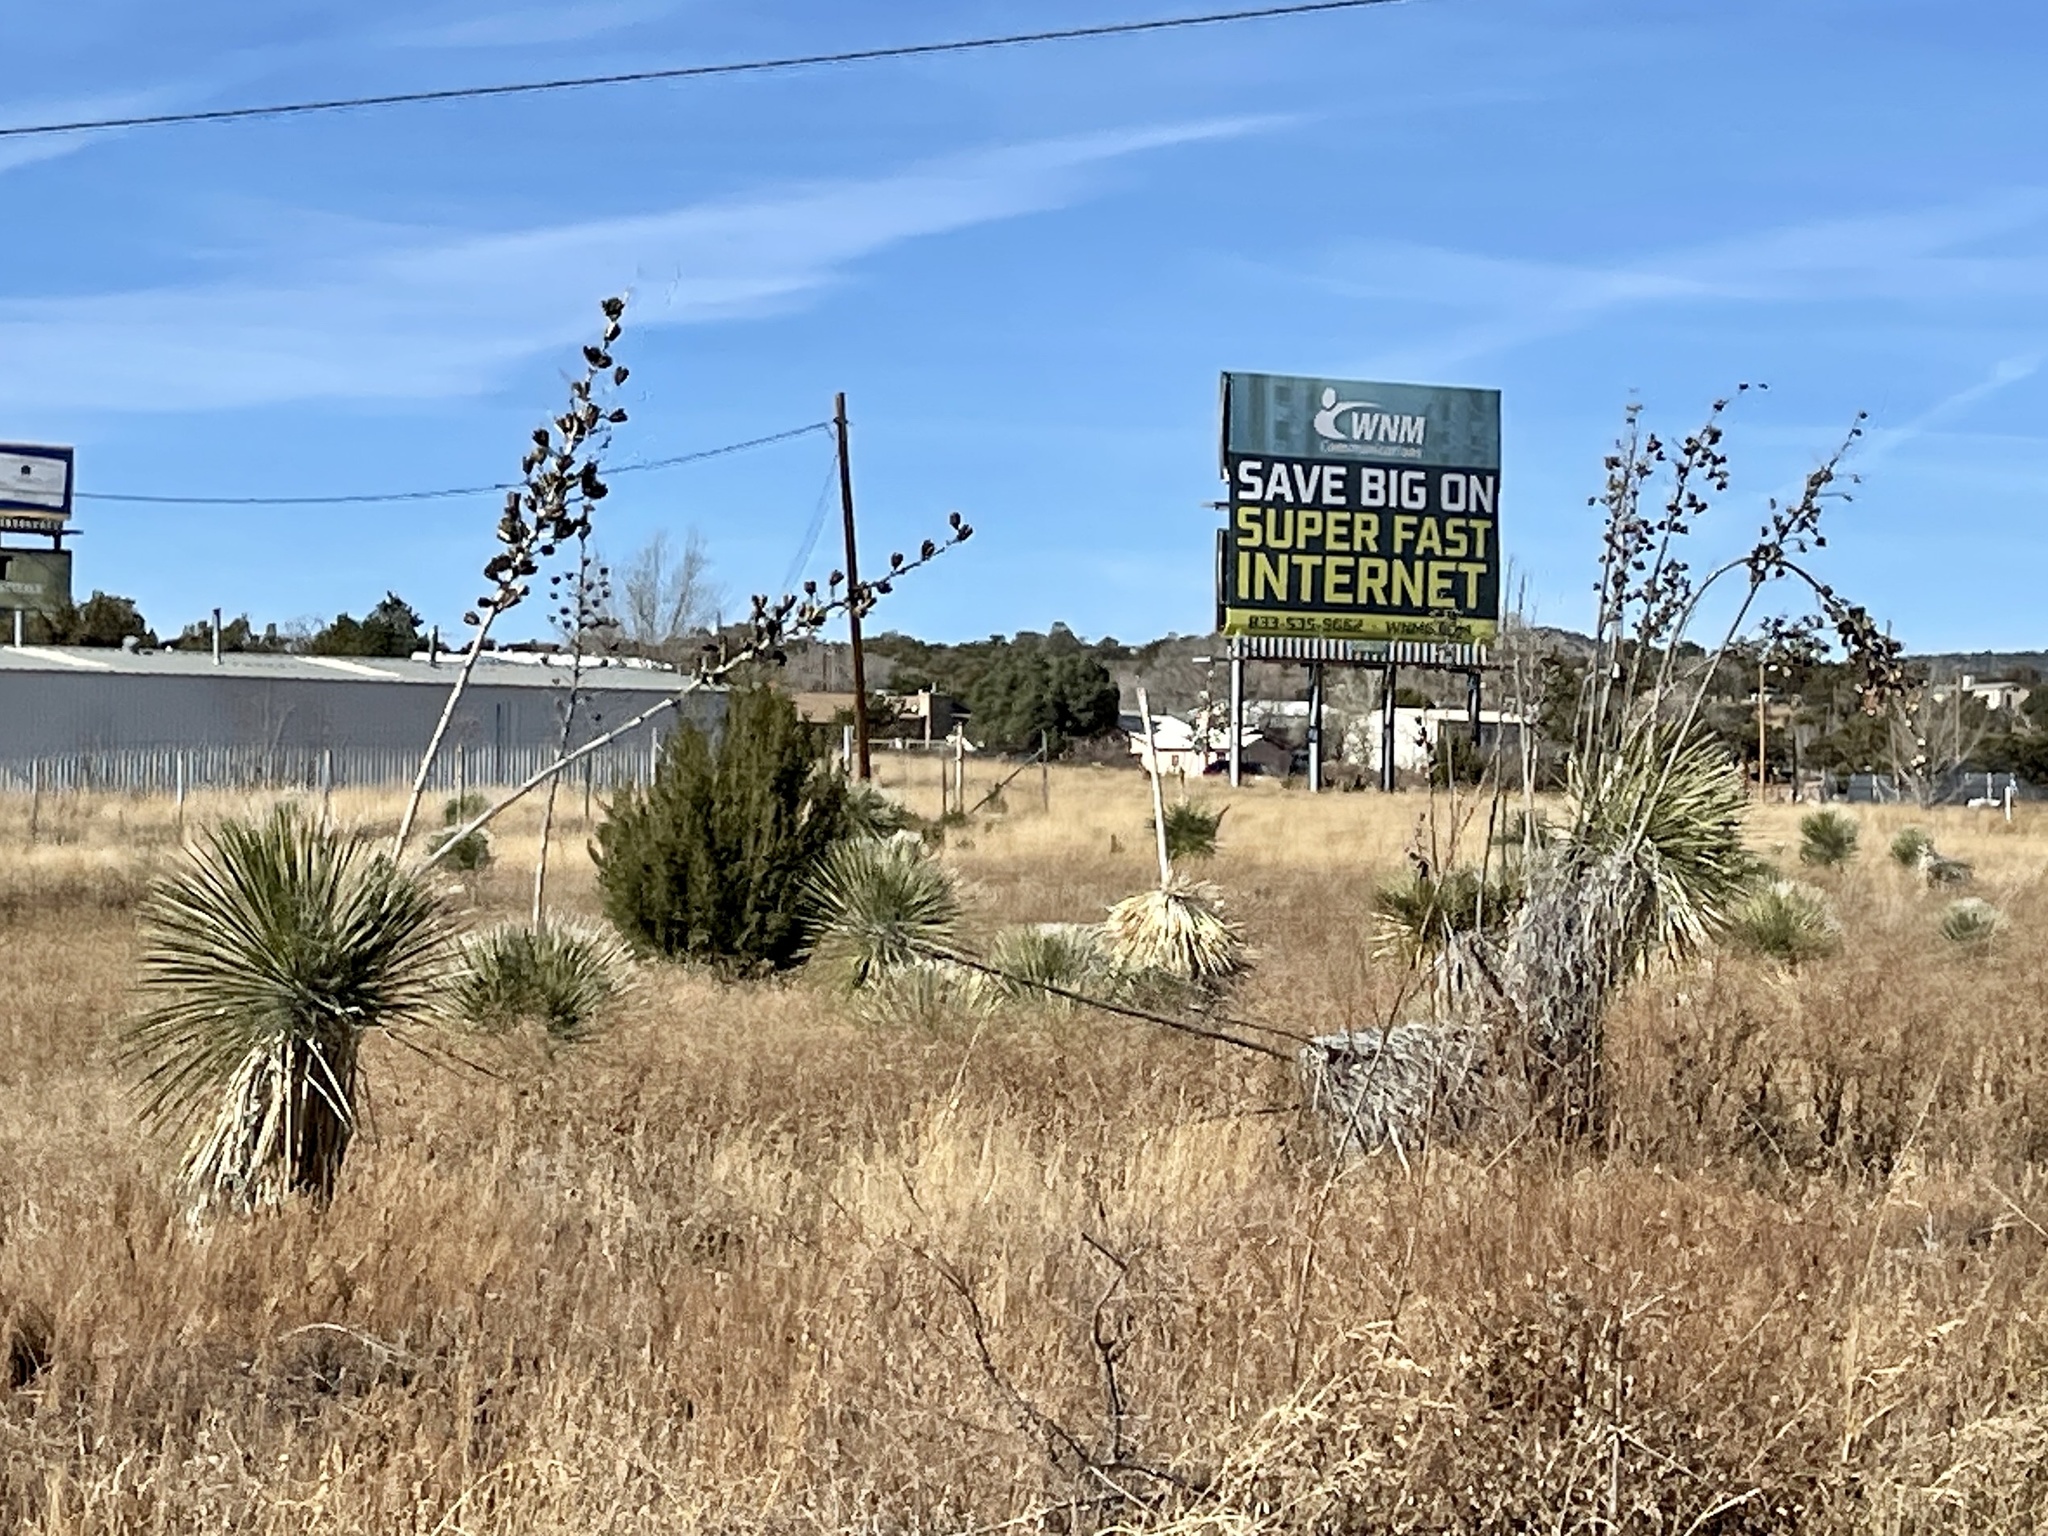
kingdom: Plantae
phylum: Tracheophyta
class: Liliopsida
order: Asparagales
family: Asparagaceae
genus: Yucca
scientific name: Yucca elata
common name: Palmella
